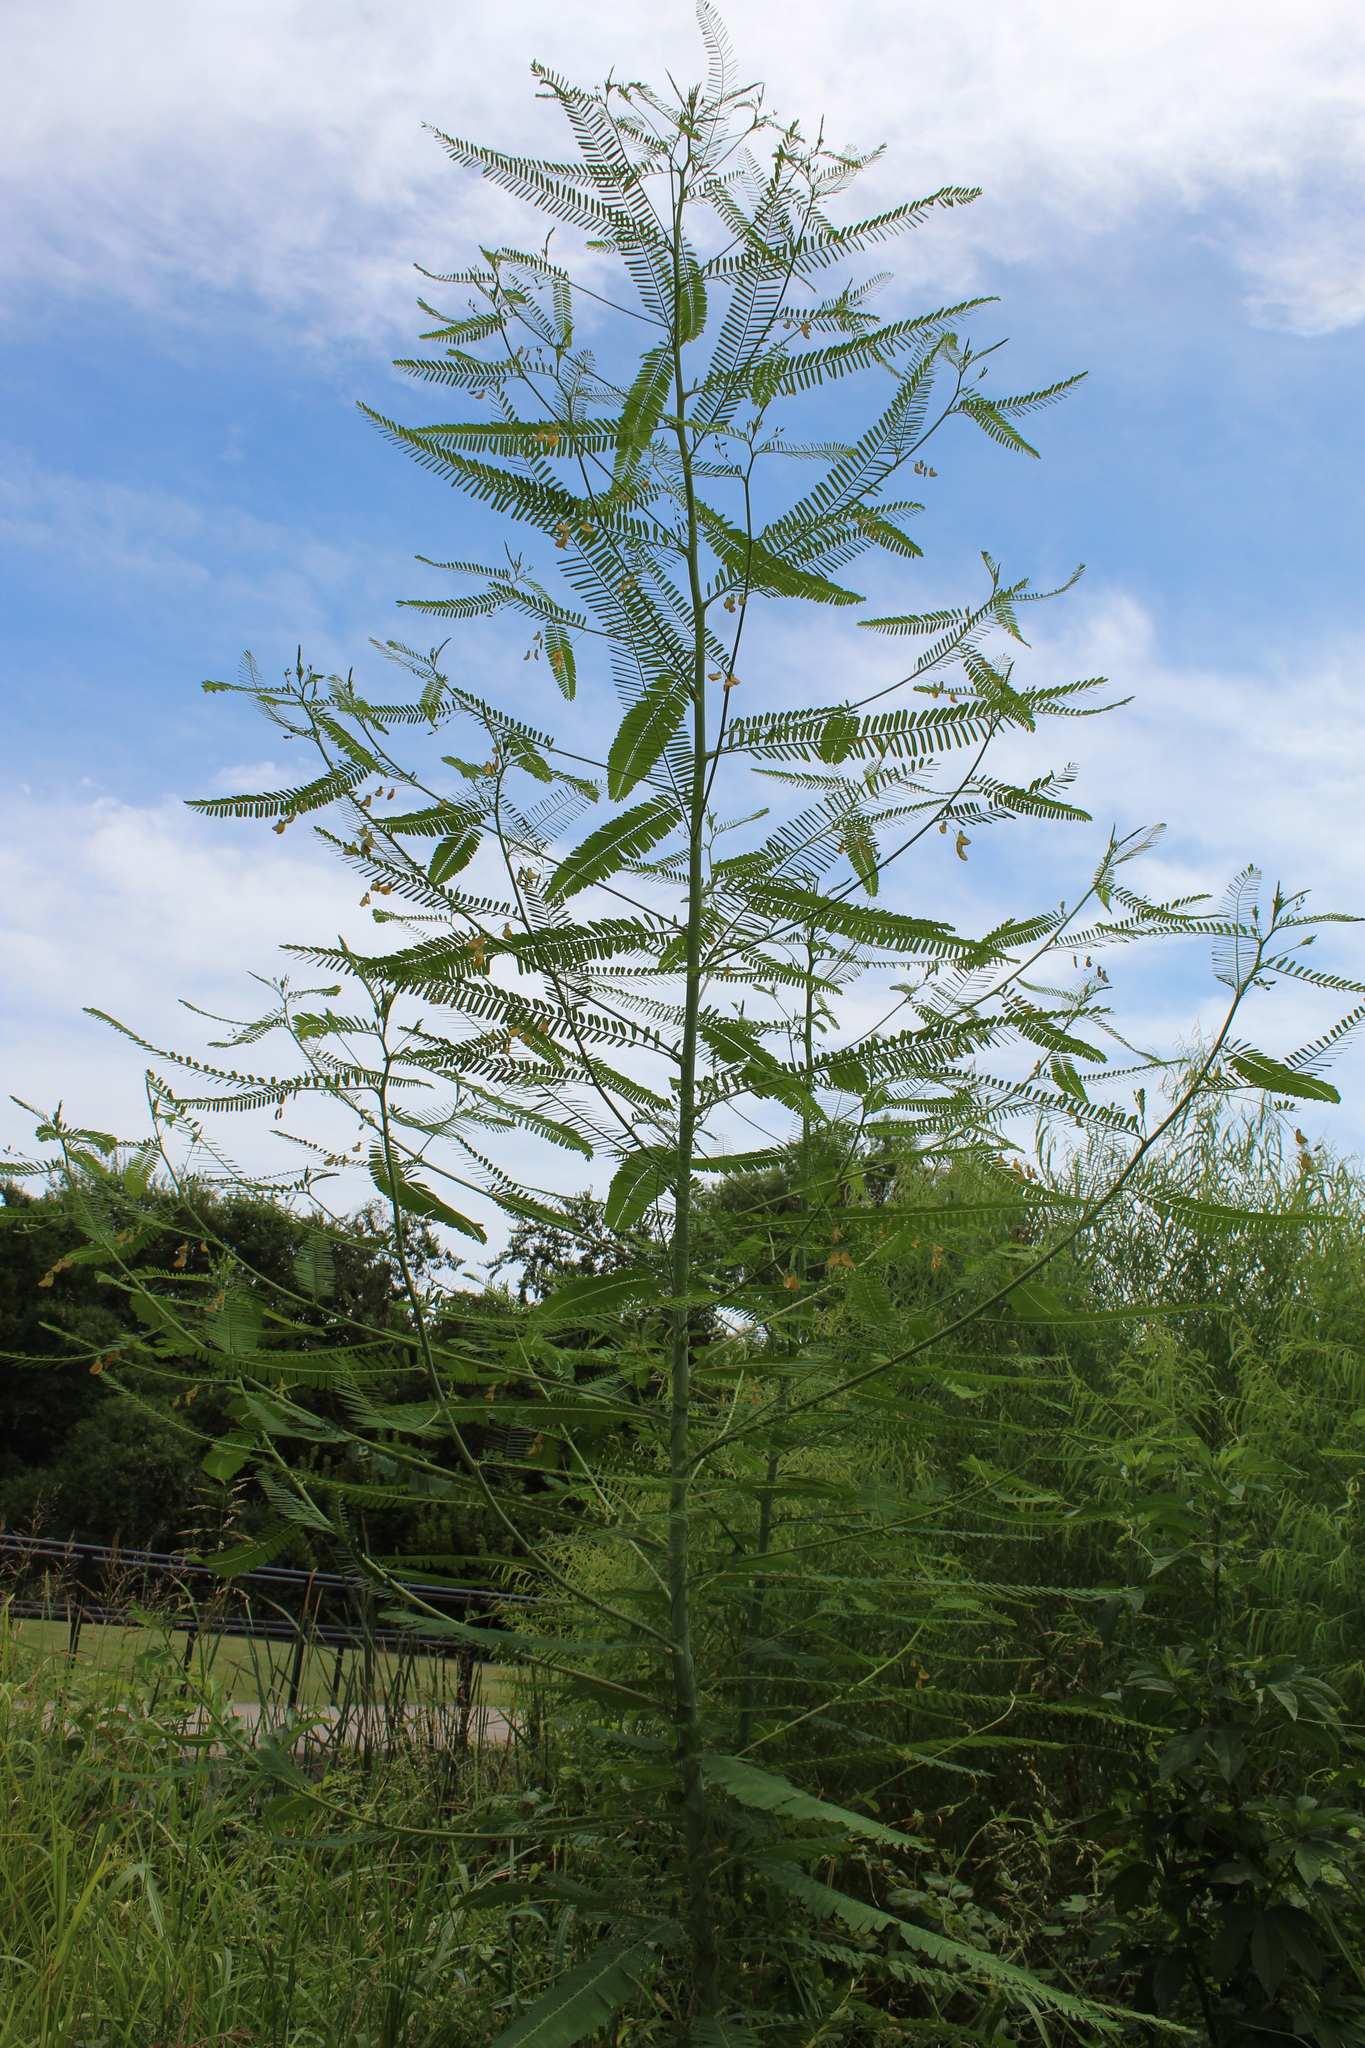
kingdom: Plantae
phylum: Tracheophyta
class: Magnoliopsida
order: Fabales
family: Fabaceae
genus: Sesbania
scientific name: Sesbania herbacea
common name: Bigpod sesbania
